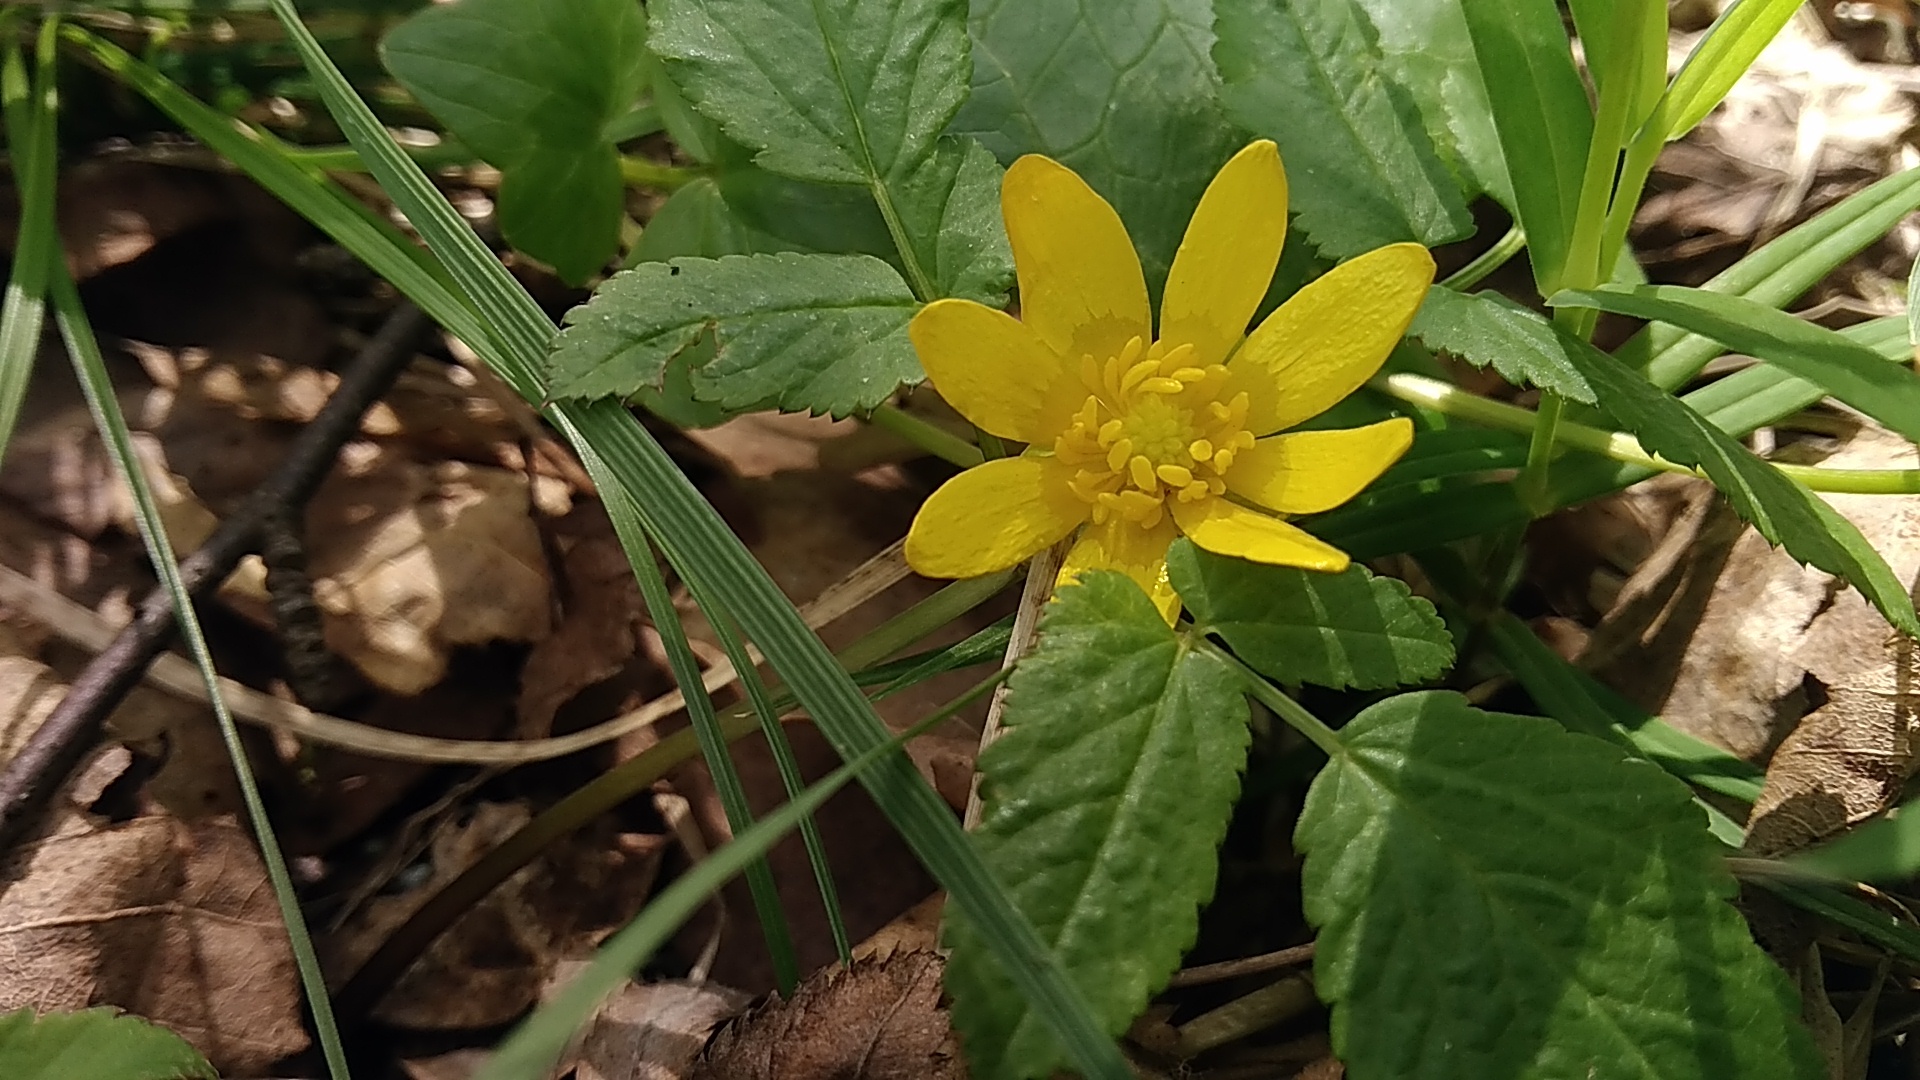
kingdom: Plantae
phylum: Tracheophyta
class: Magnoliopsida
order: Ranunculales
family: Ranunculaceae
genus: Ficaria
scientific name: Ficaria verna
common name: Lesser celandine
